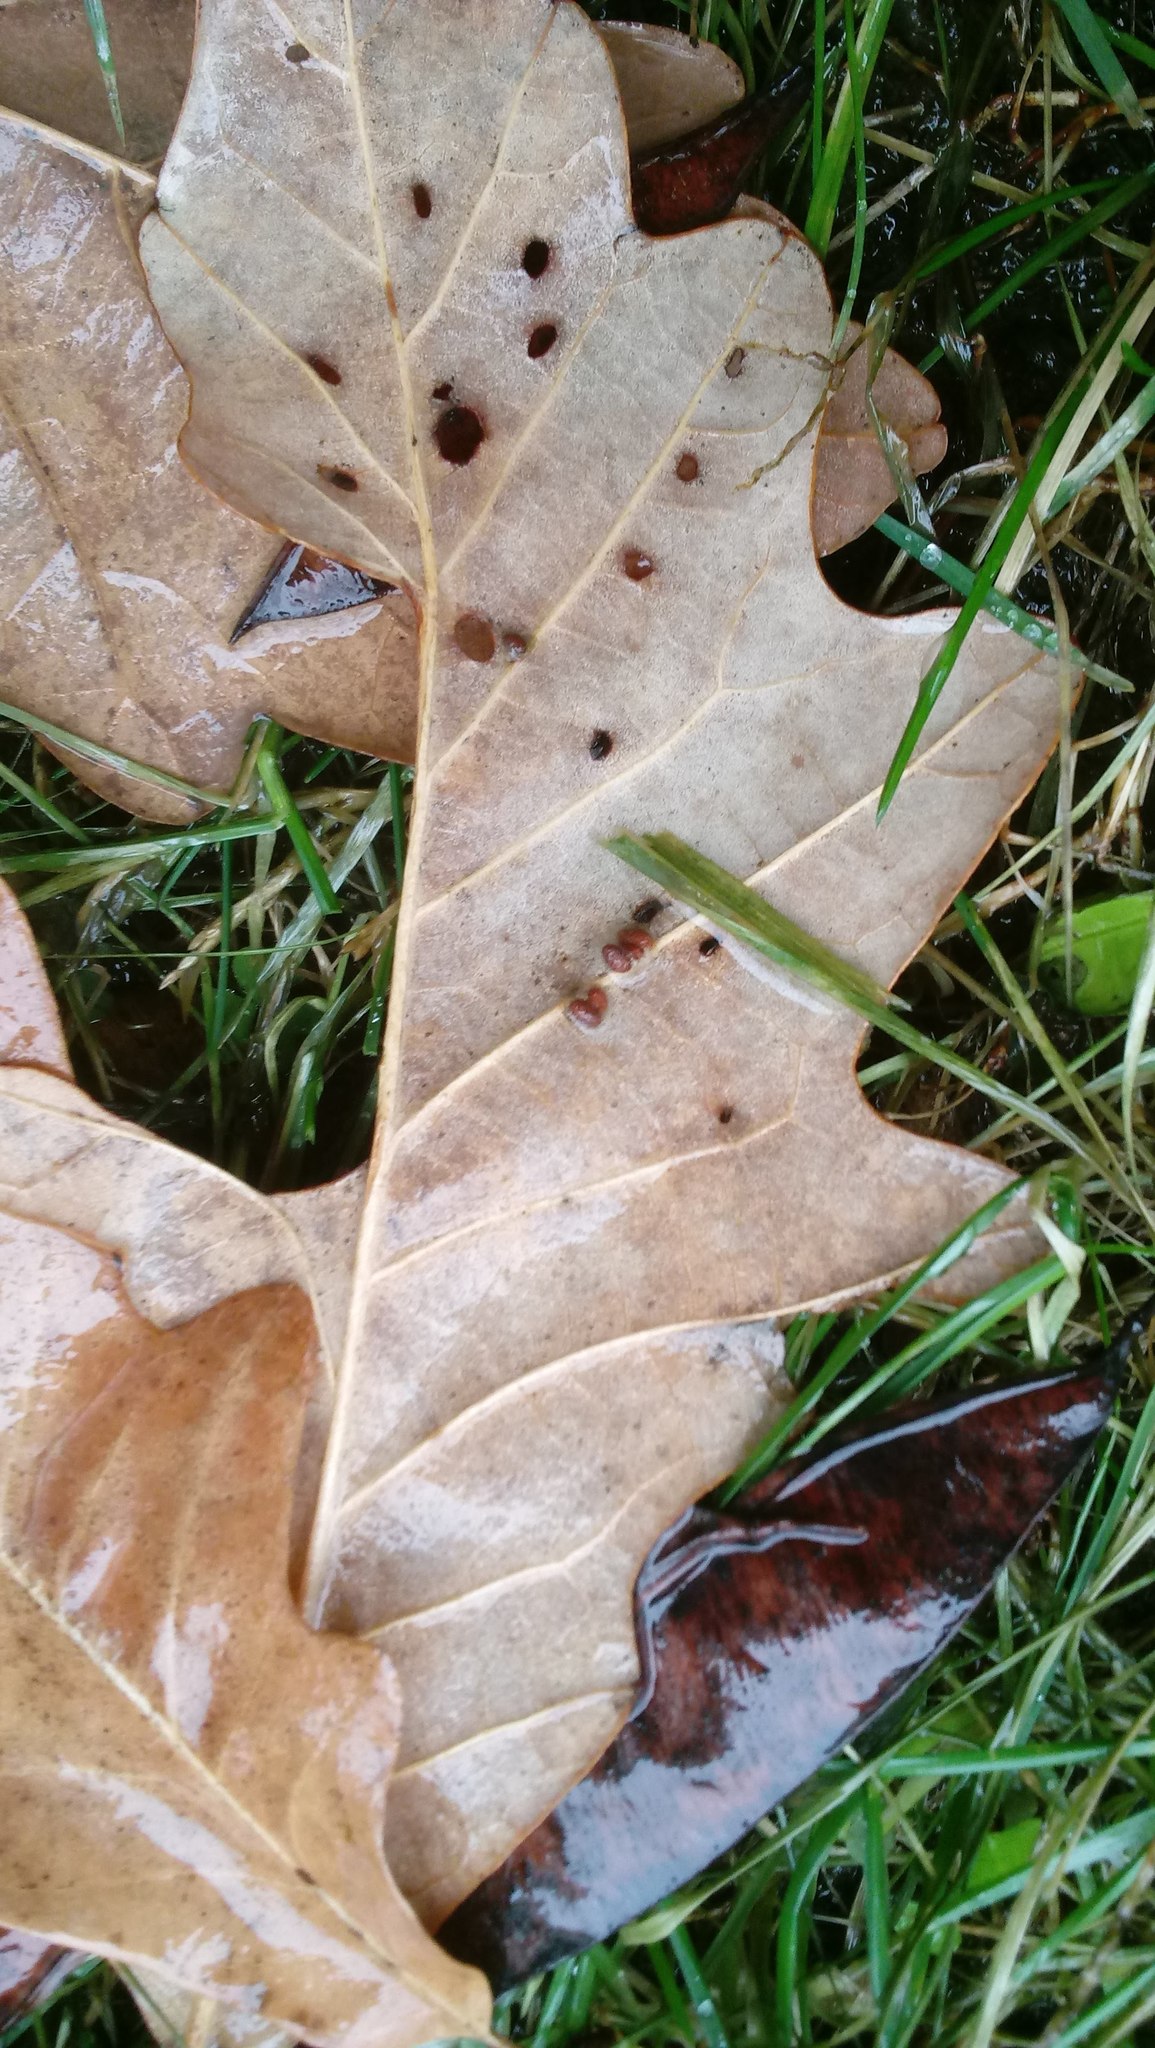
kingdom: Animalia
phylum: Arthropoda
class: Insecta
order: Hymenoptera
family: Cynipidae
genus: Andricus
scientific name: Andricus Druon ignotum
